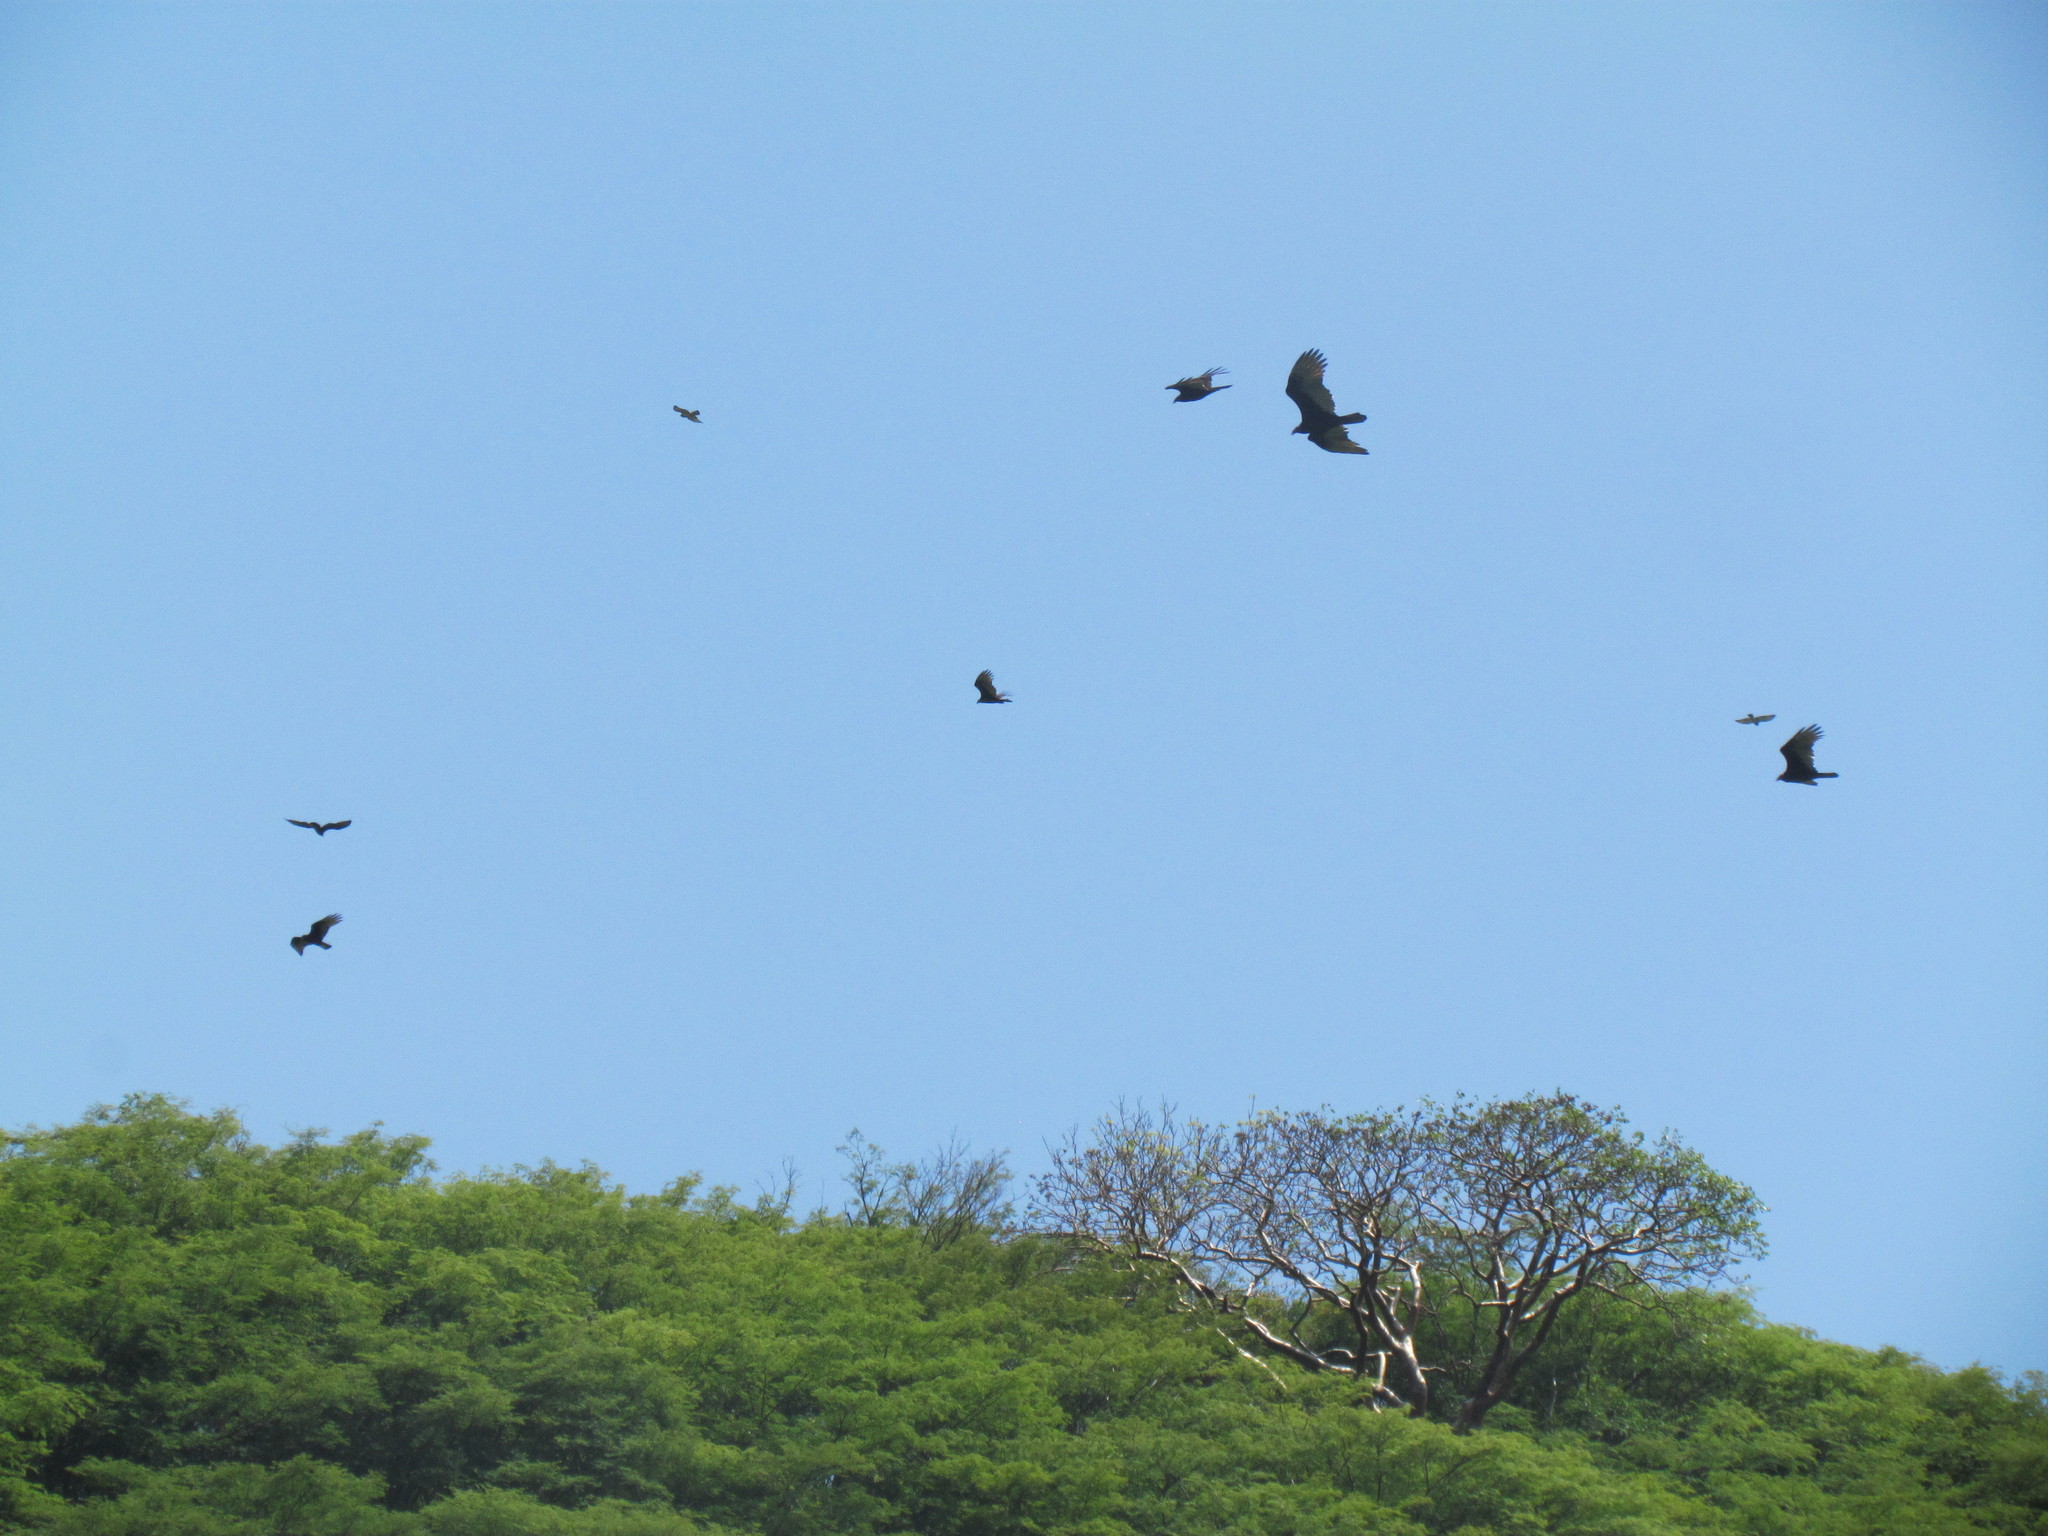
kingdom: Animalia
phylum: Chordata
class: Aves
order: Accipitriformes
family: Cathartidae
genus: Cathartes
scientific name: Cathartes aura
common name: Turkey vulture
